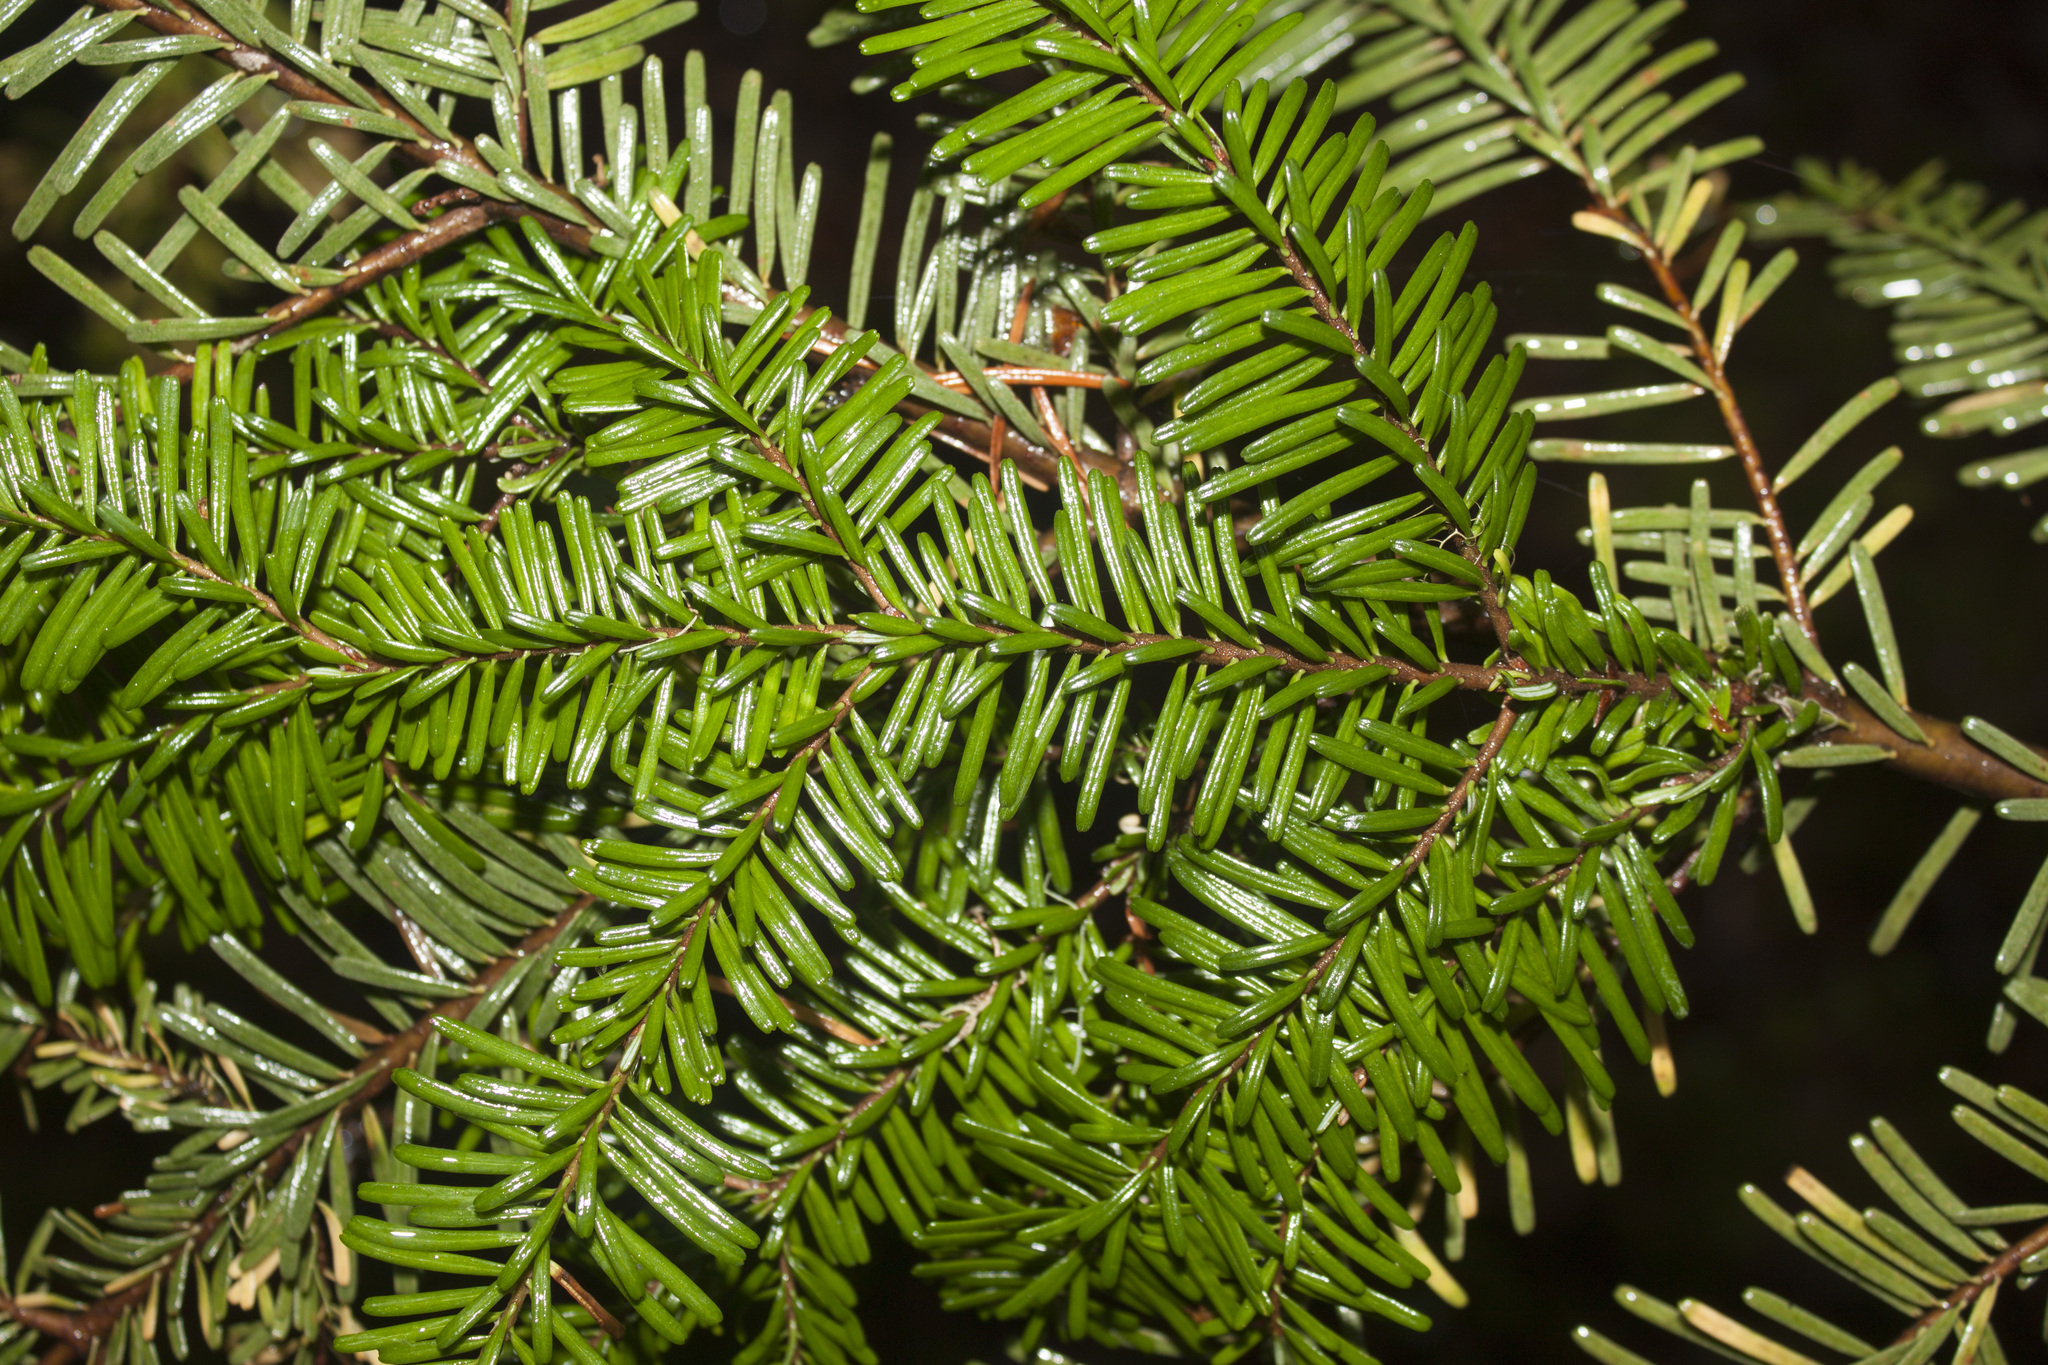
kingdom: Plantae
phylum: Tracheophyta
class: Pinopsida
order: Pinales
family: Pinaceae
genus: Abies
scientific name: Abies amabilis
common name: Pacific silver fir
